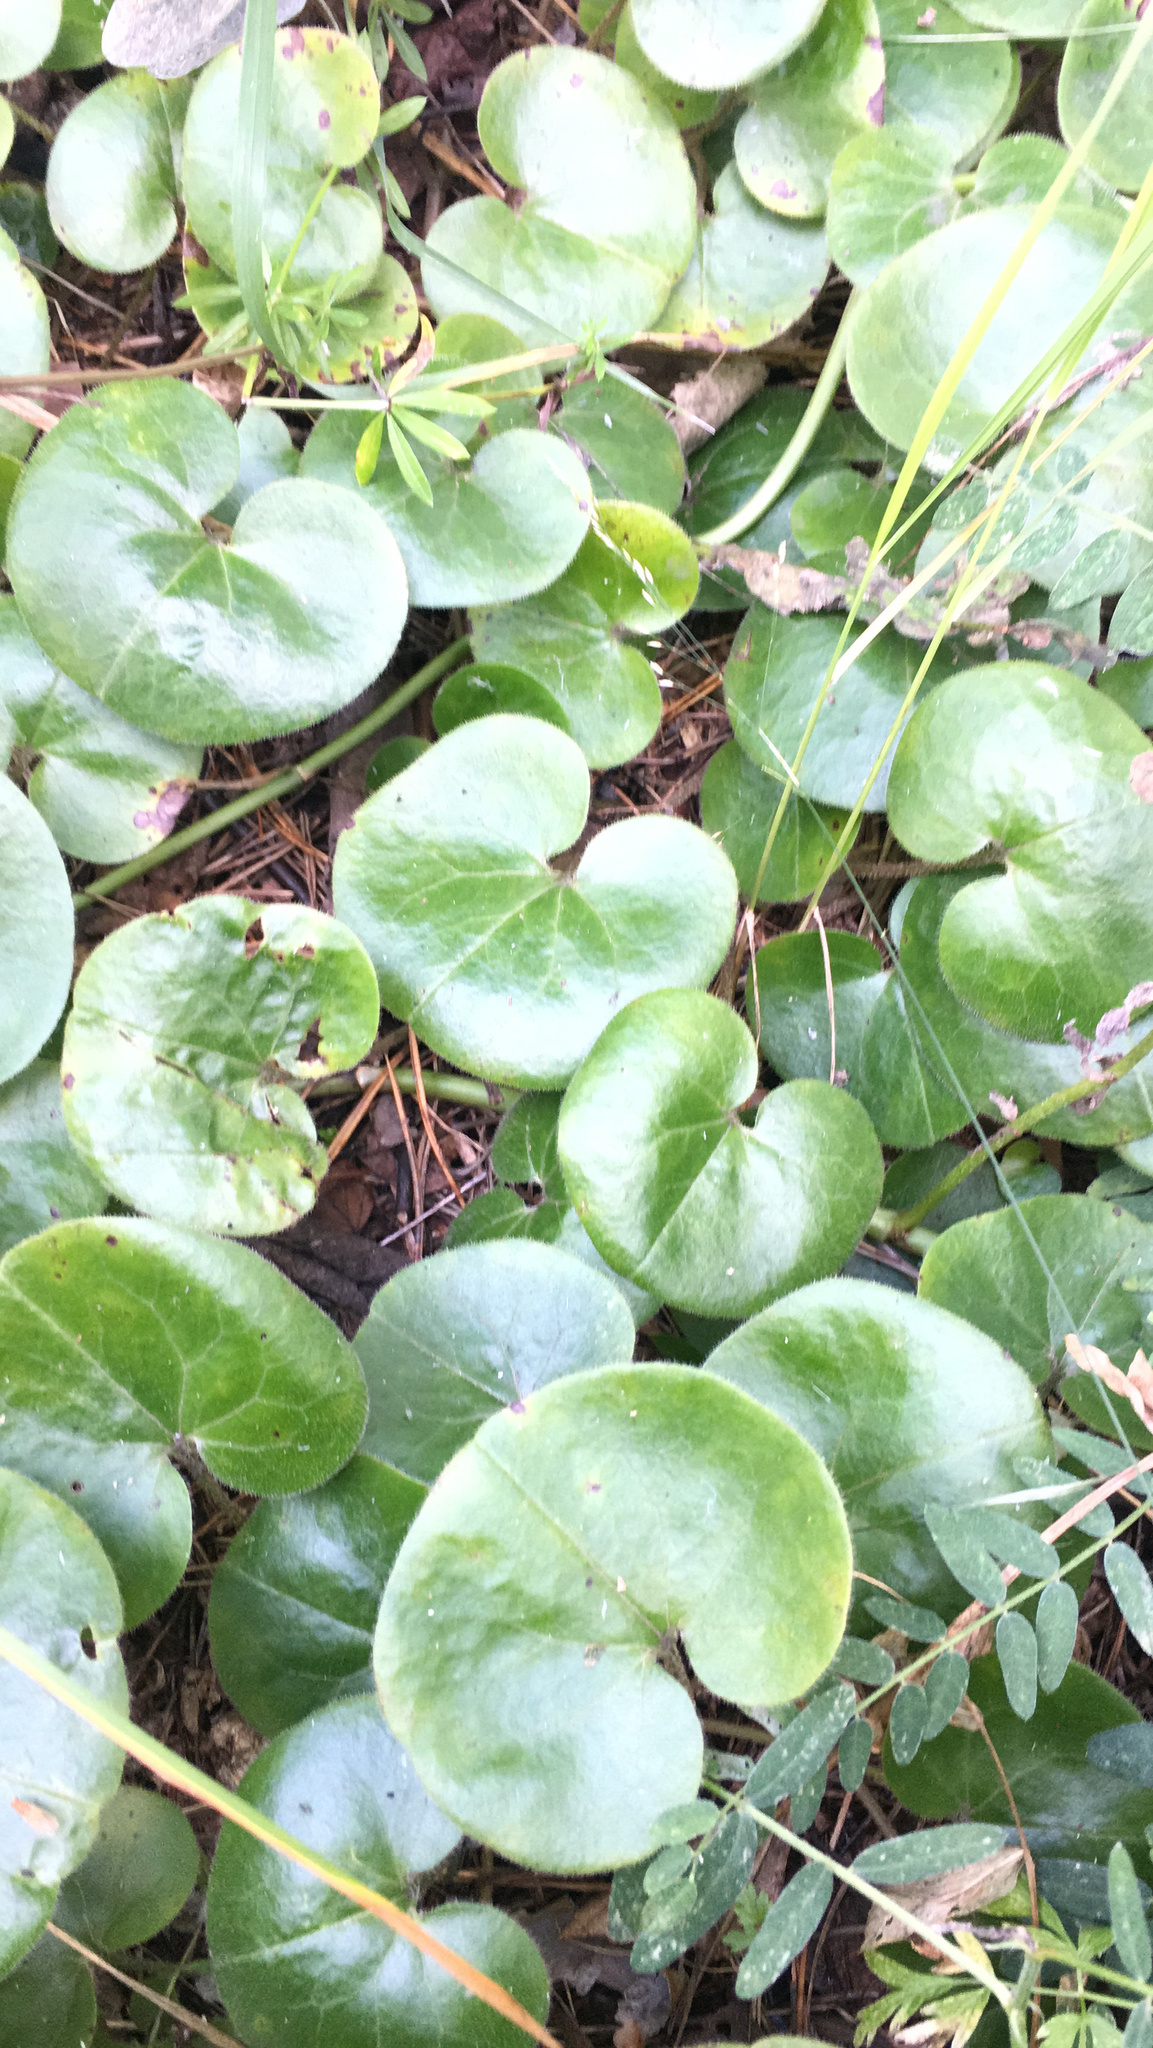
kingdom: Plantae
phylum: Tracheophyta
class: Magnoliopsida
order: Piperales
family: Aristolochiaceae
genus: Asarum
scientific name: Asarum europaeum
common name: Asarabacca
